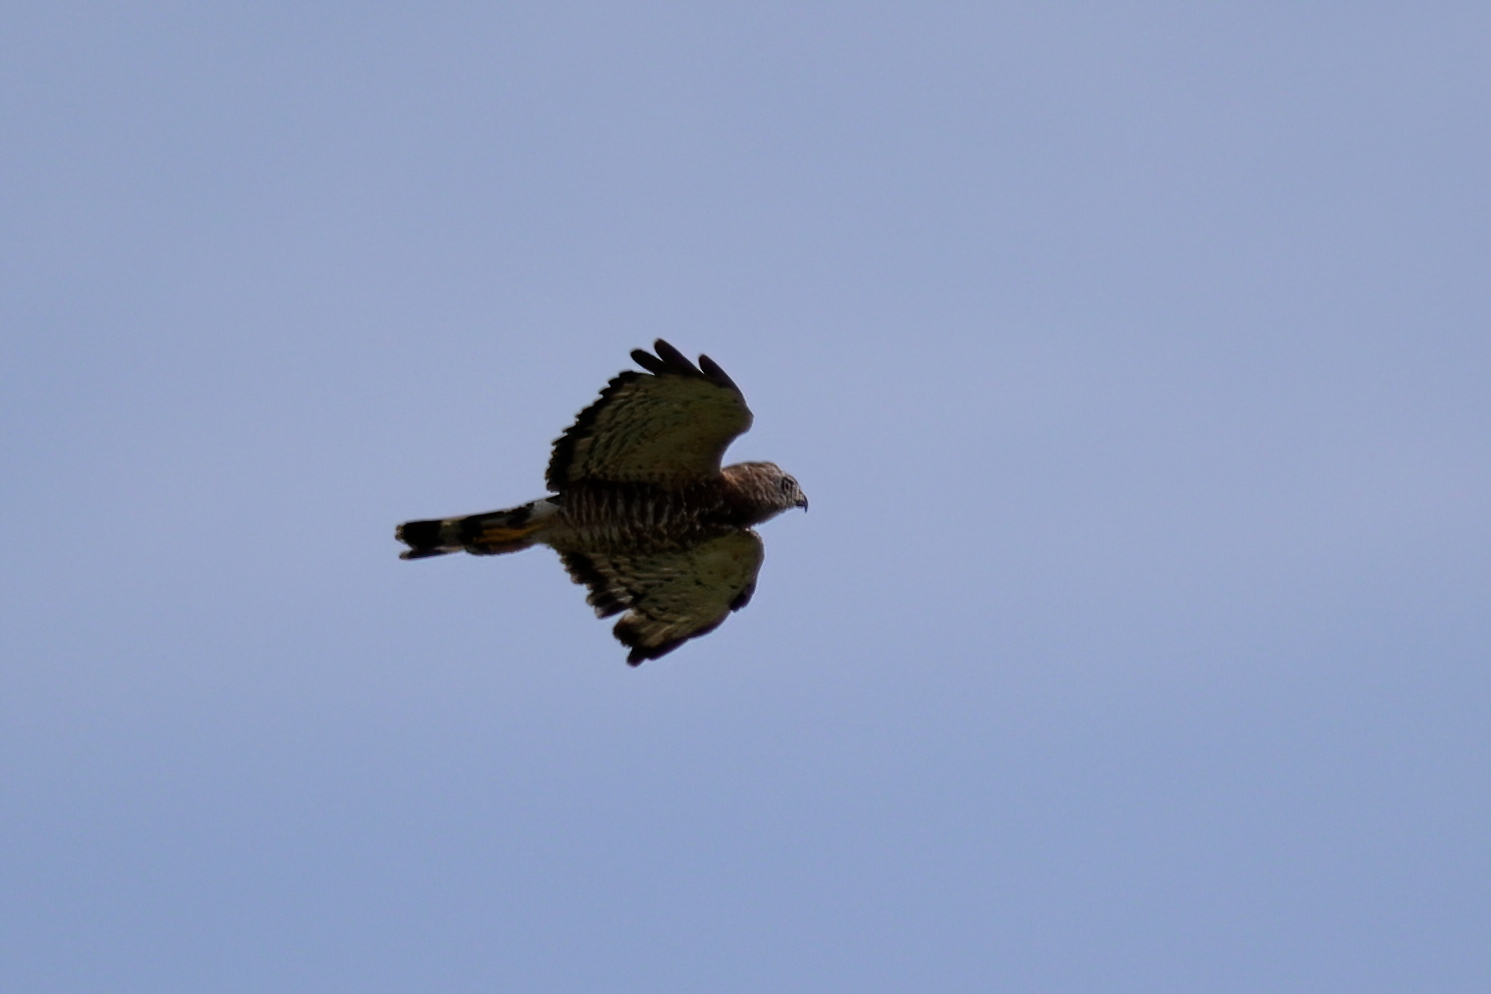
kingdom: Animalia
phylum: Chordata
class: Aves
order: Accipitriformes
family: Accipitridae
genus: Buteo
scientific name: Buteo platypterus
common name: Broad-winged hawk
